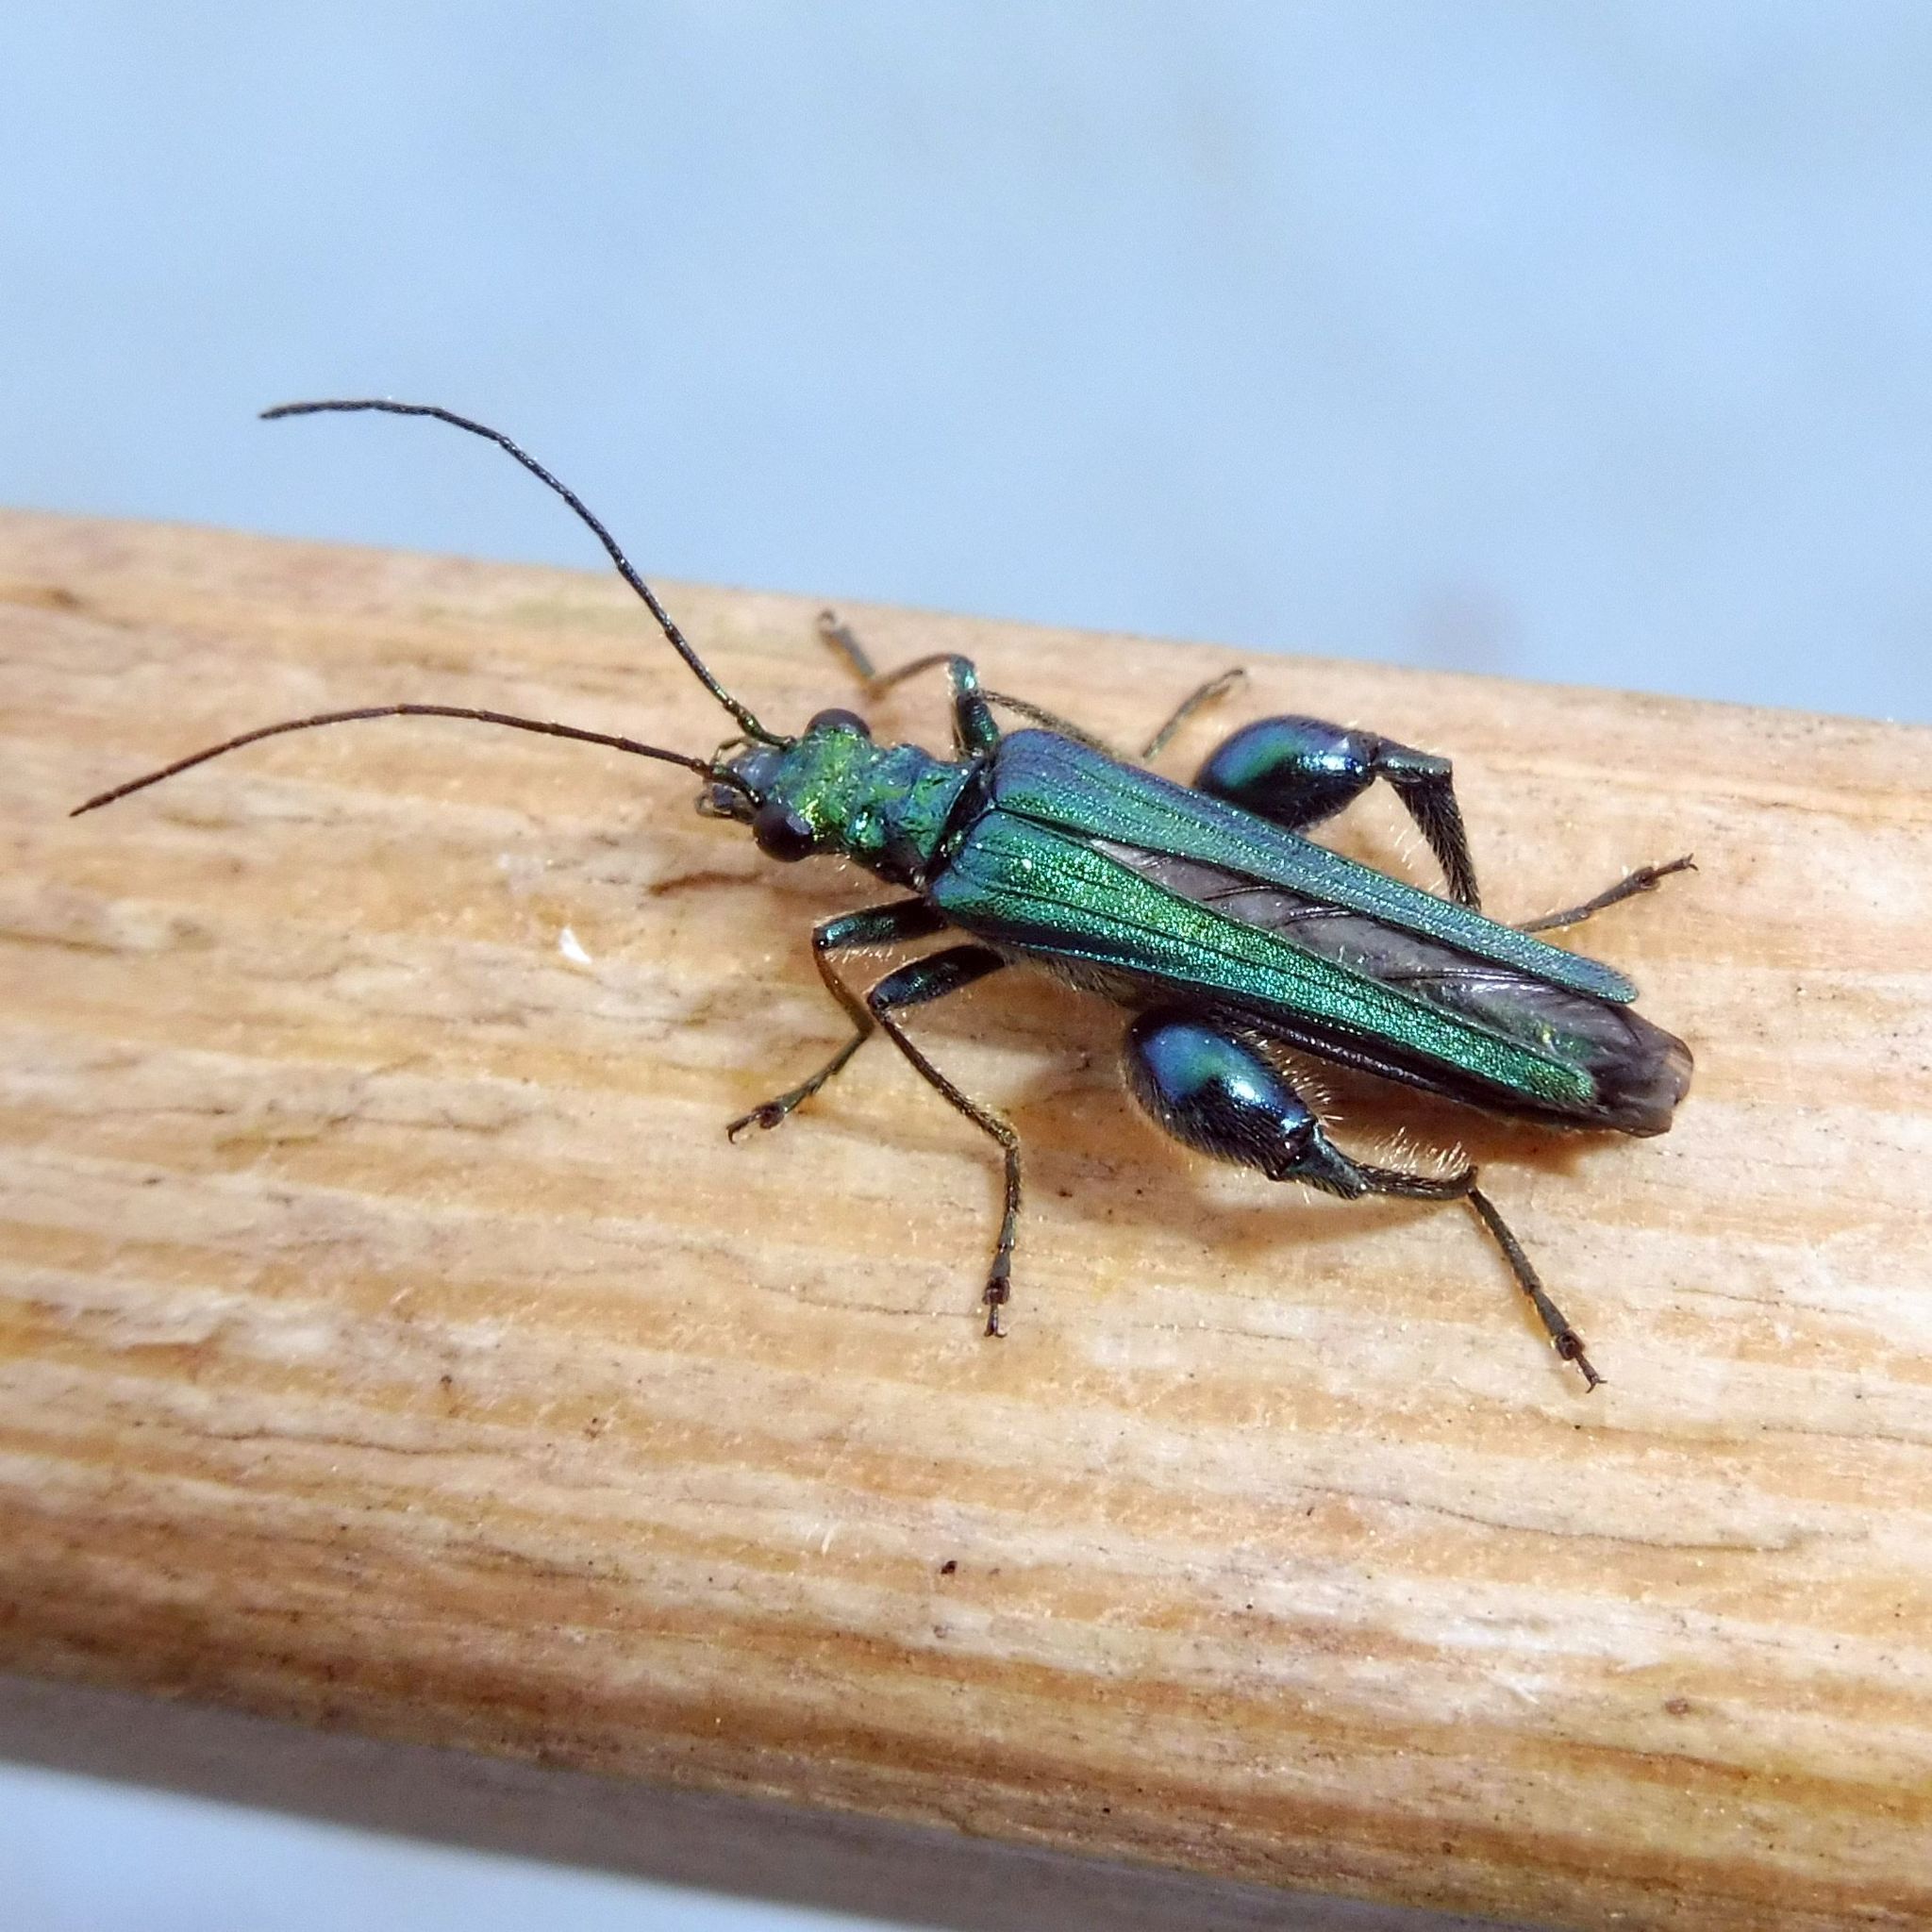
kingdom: Animalia
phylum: Arthropoda
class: Insecta
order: Coleoptera
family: Oedemeridae
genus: Oedemera
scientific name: Oedemera nobilis
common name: Swollen-thighed beetle
